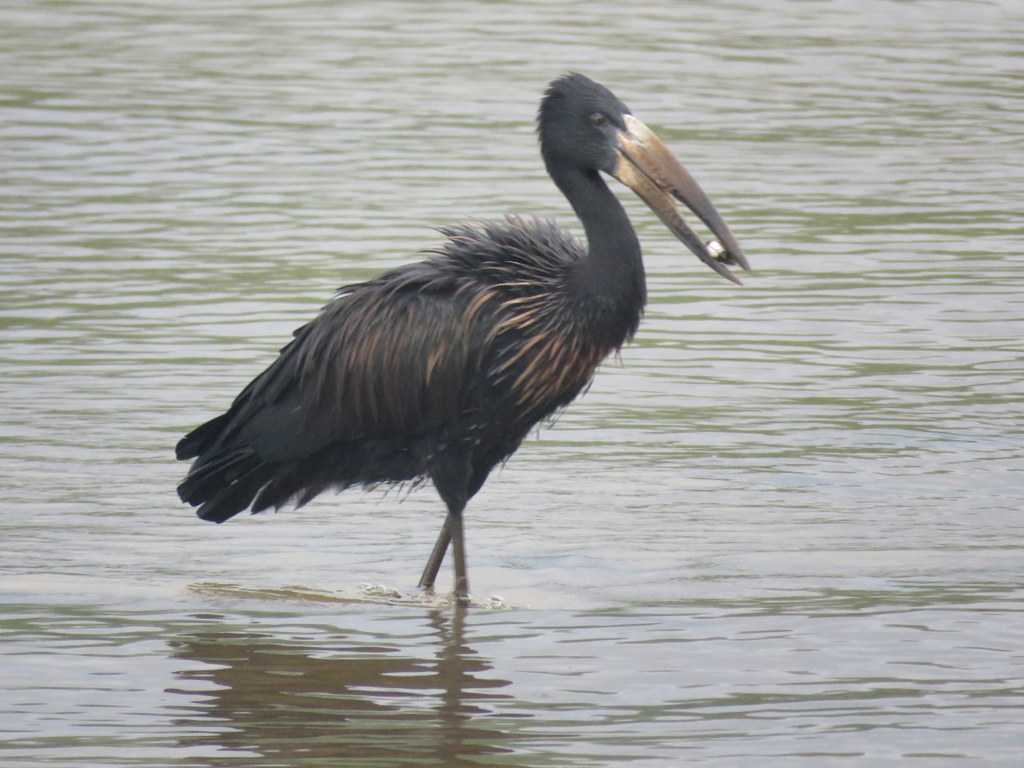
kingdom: Animalia
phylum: Chordata
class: Aves
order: Ciconiiformes
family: Ciconiidae
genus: Anastomus
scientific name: Anastomus lamelligerus
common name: African openbill
